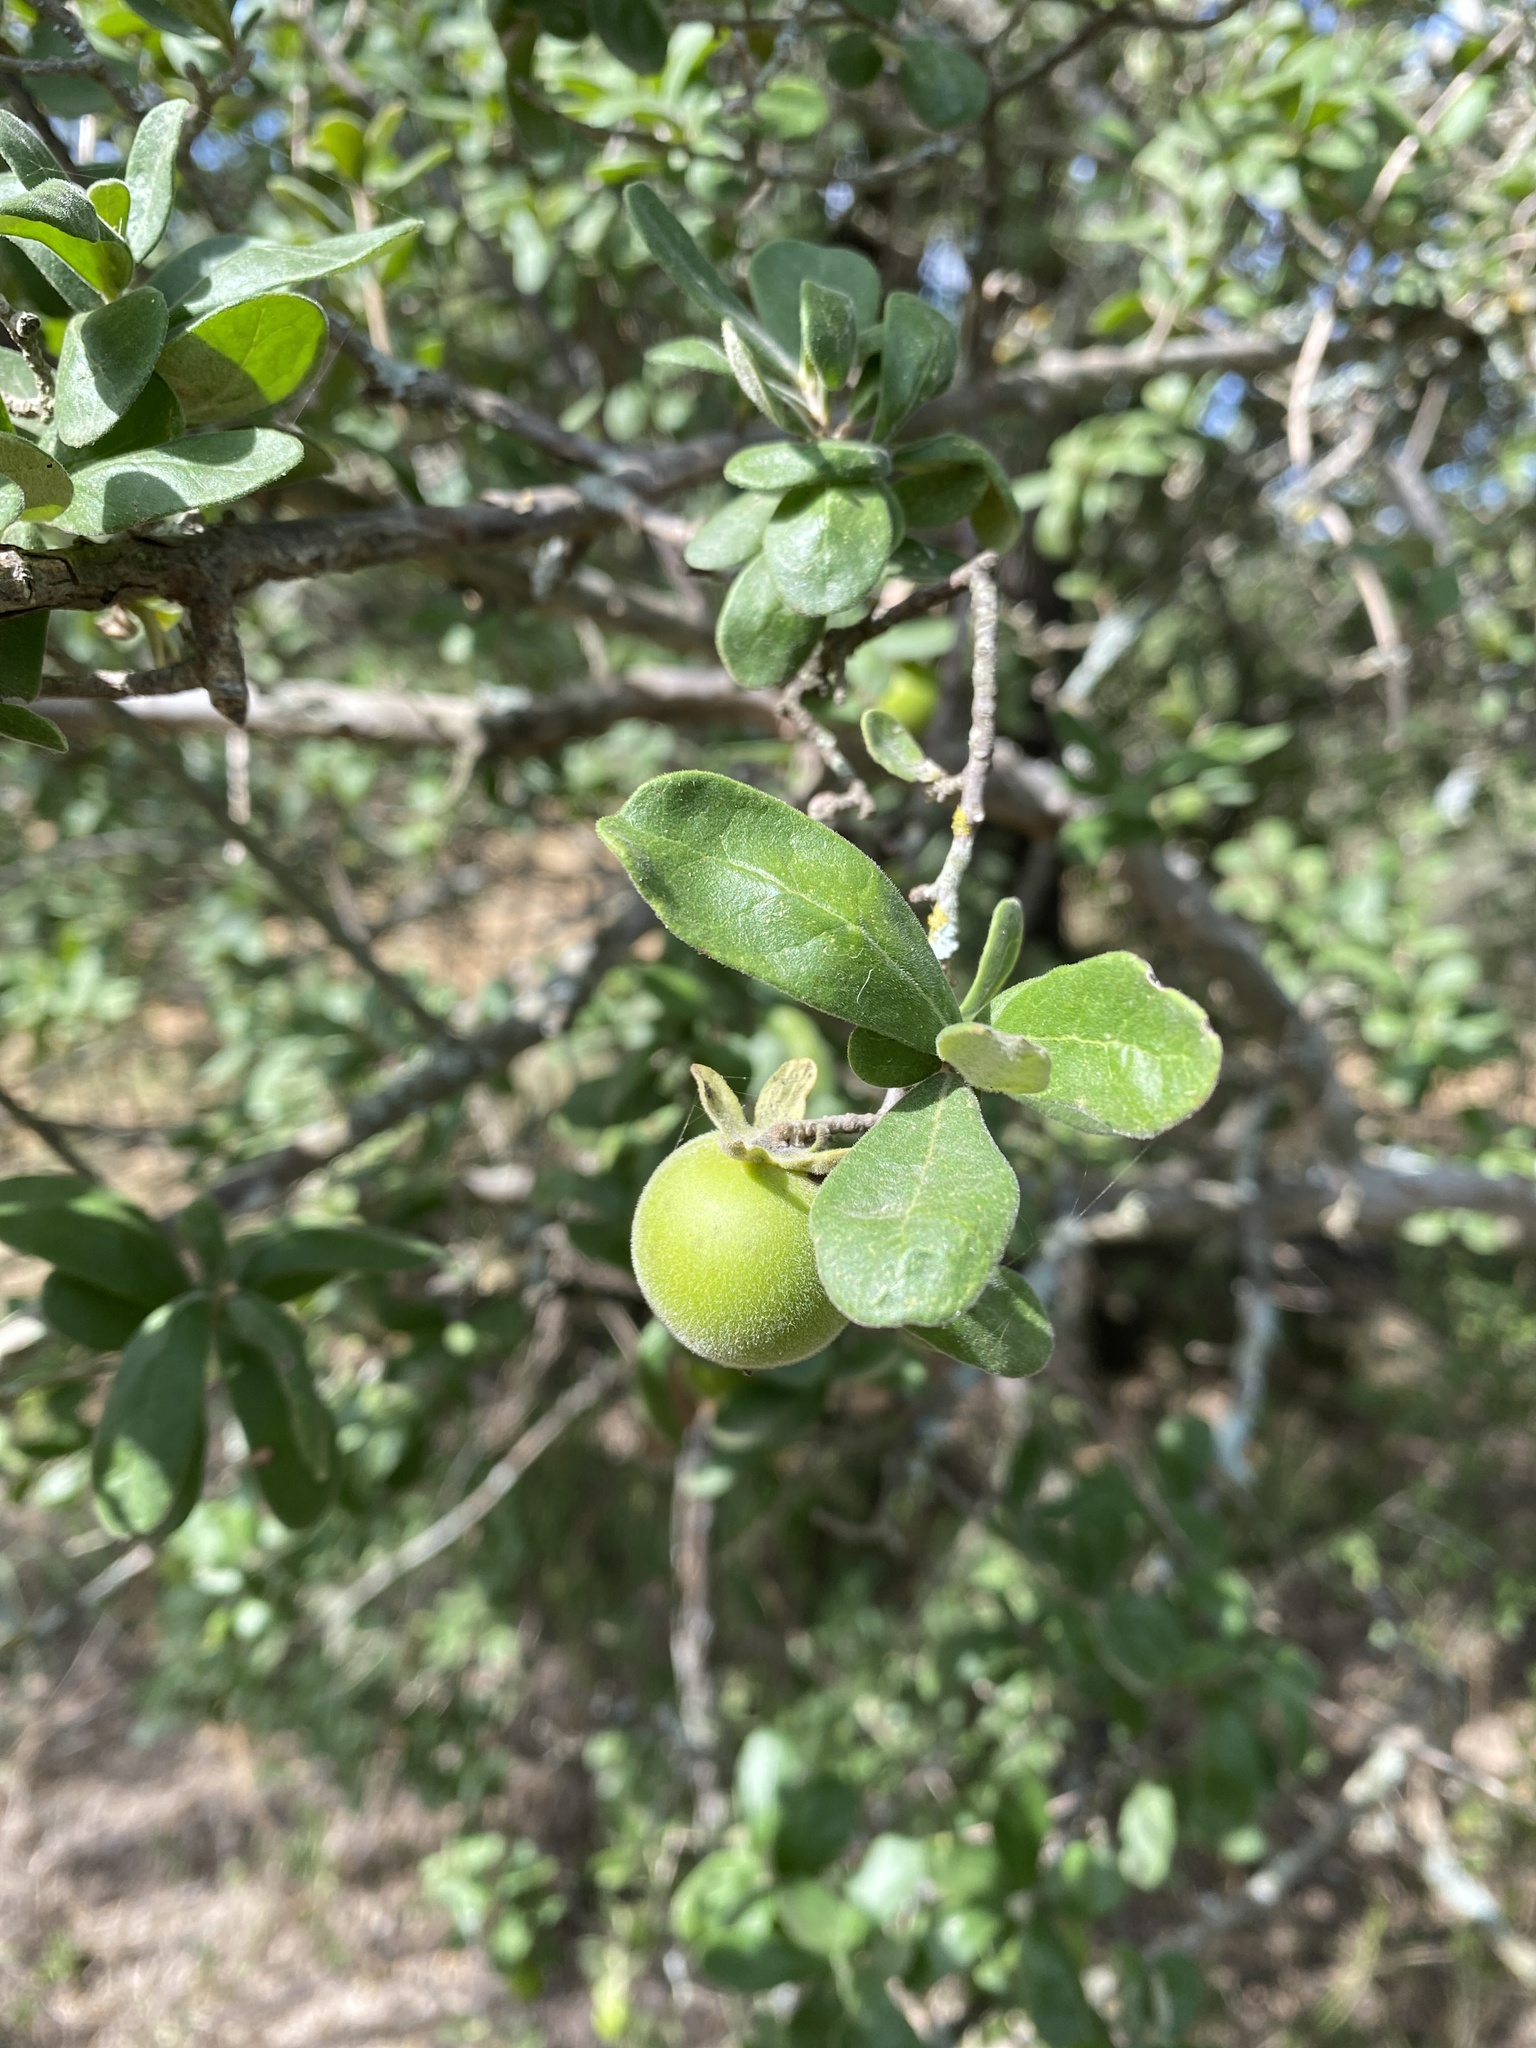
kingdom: Plantae
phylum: Tracheophyta
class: Magnoliopsida
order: Ericales
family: Ebenaceae
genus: Diospyros
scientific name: Diospyros texana
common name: Texas persimmon
